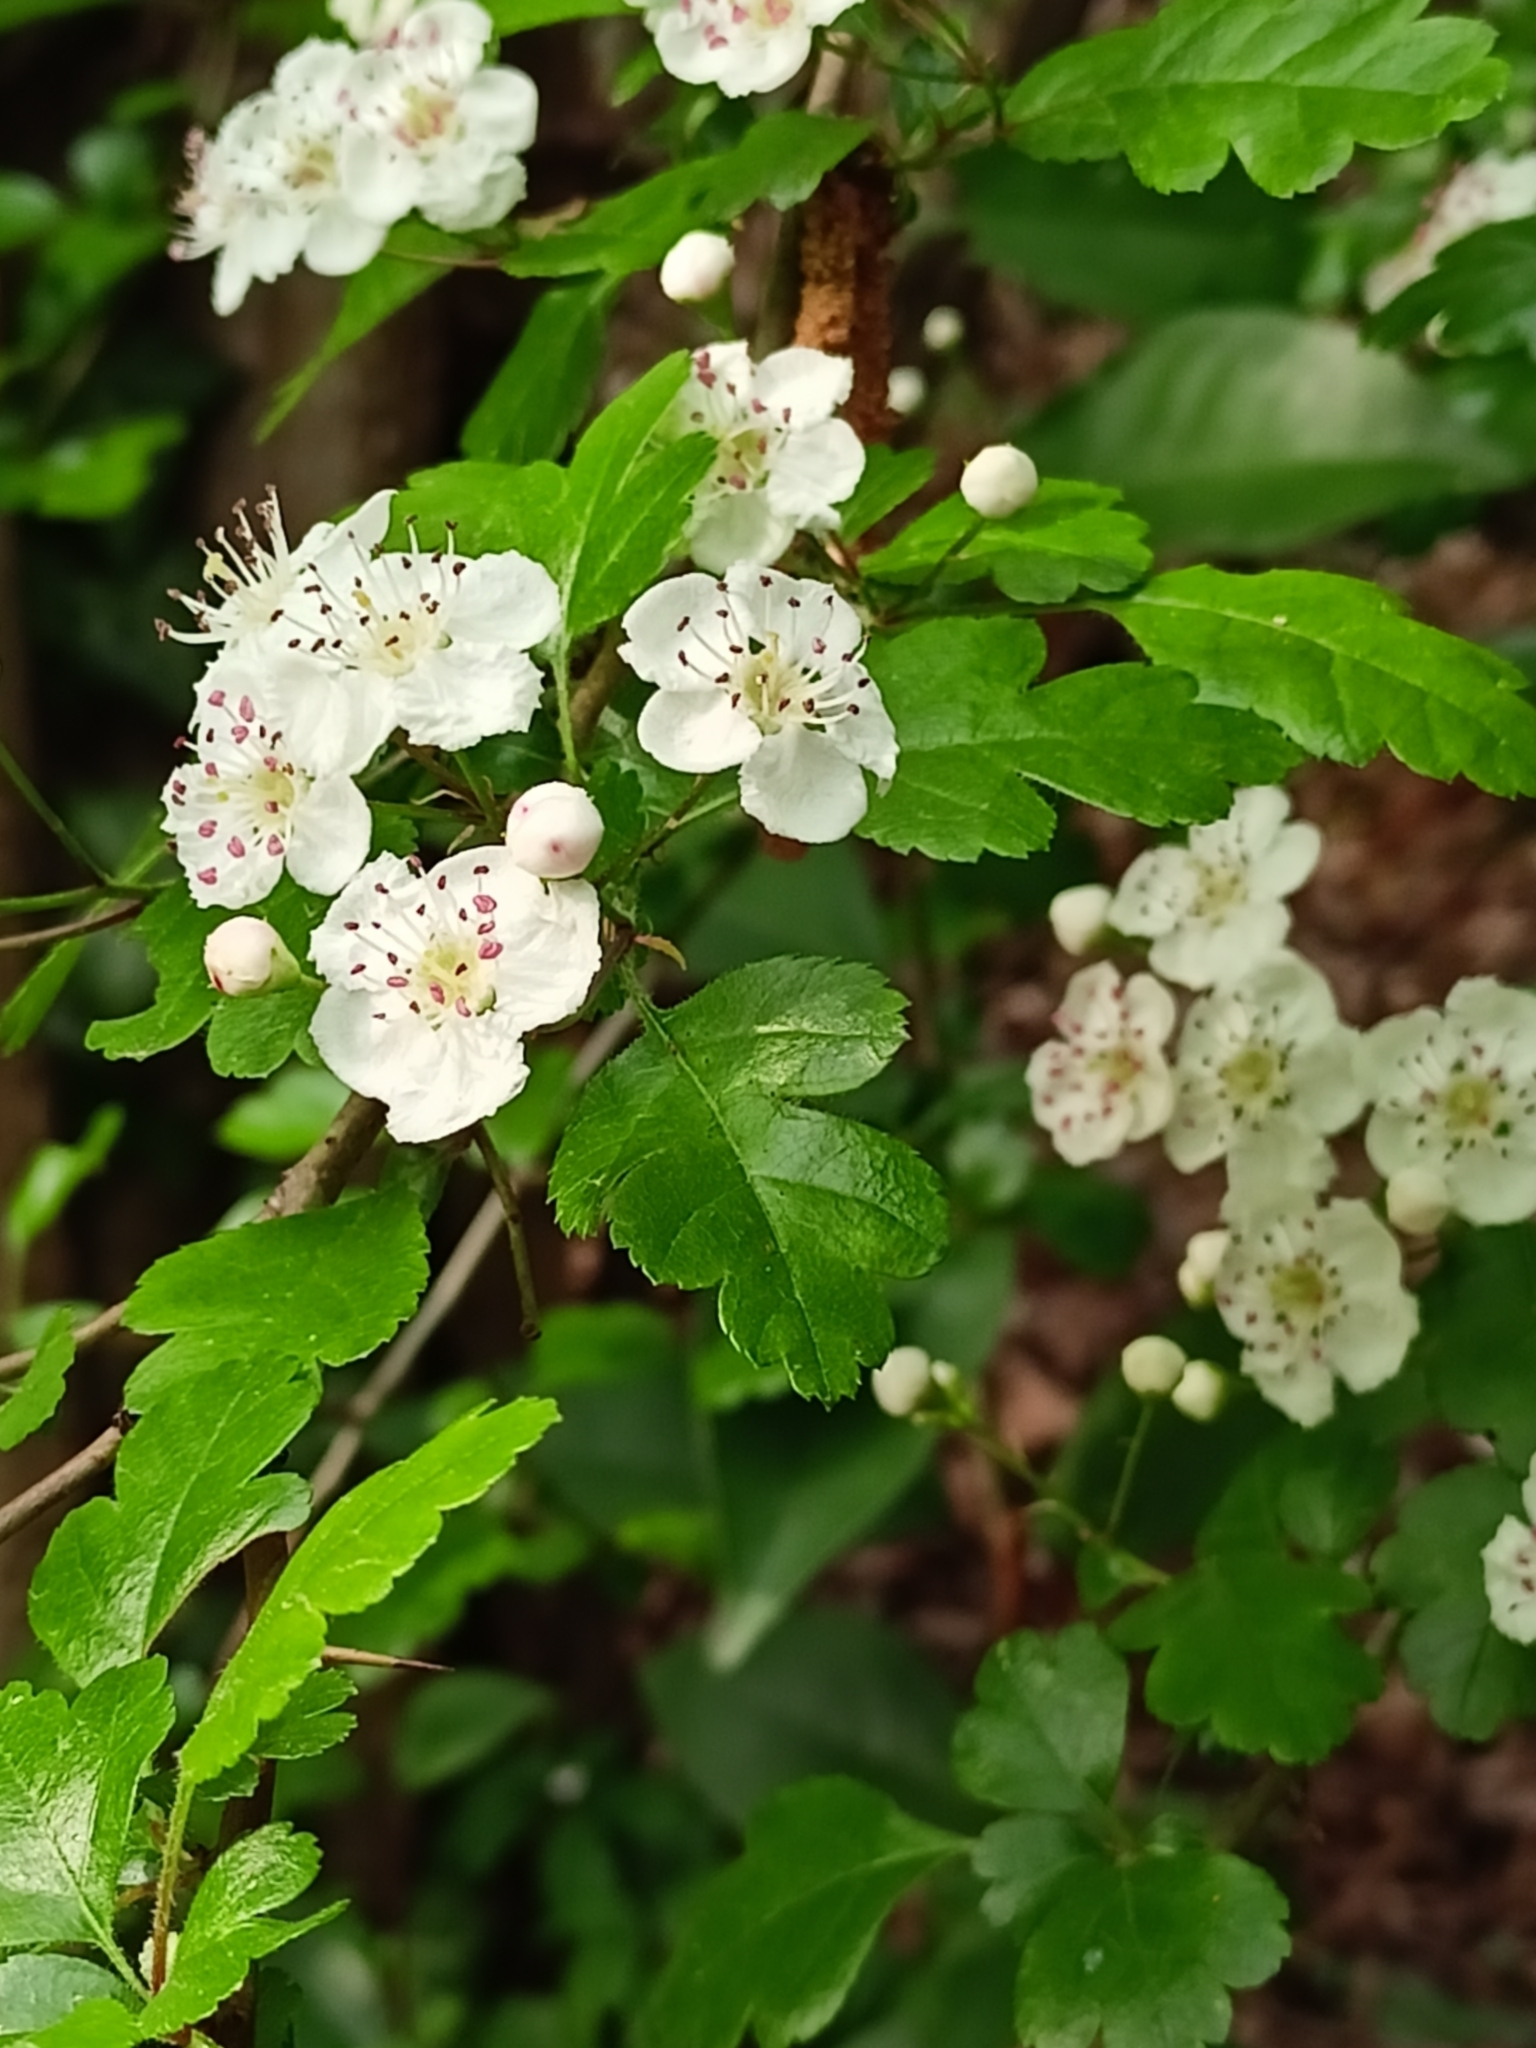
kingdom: Plantae
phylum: Tracheophyta
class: Magnoliopsida
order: Rosales
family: Rosaceae
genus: Crataegus
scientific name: Crataegus monogyna
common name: Hawthorn
